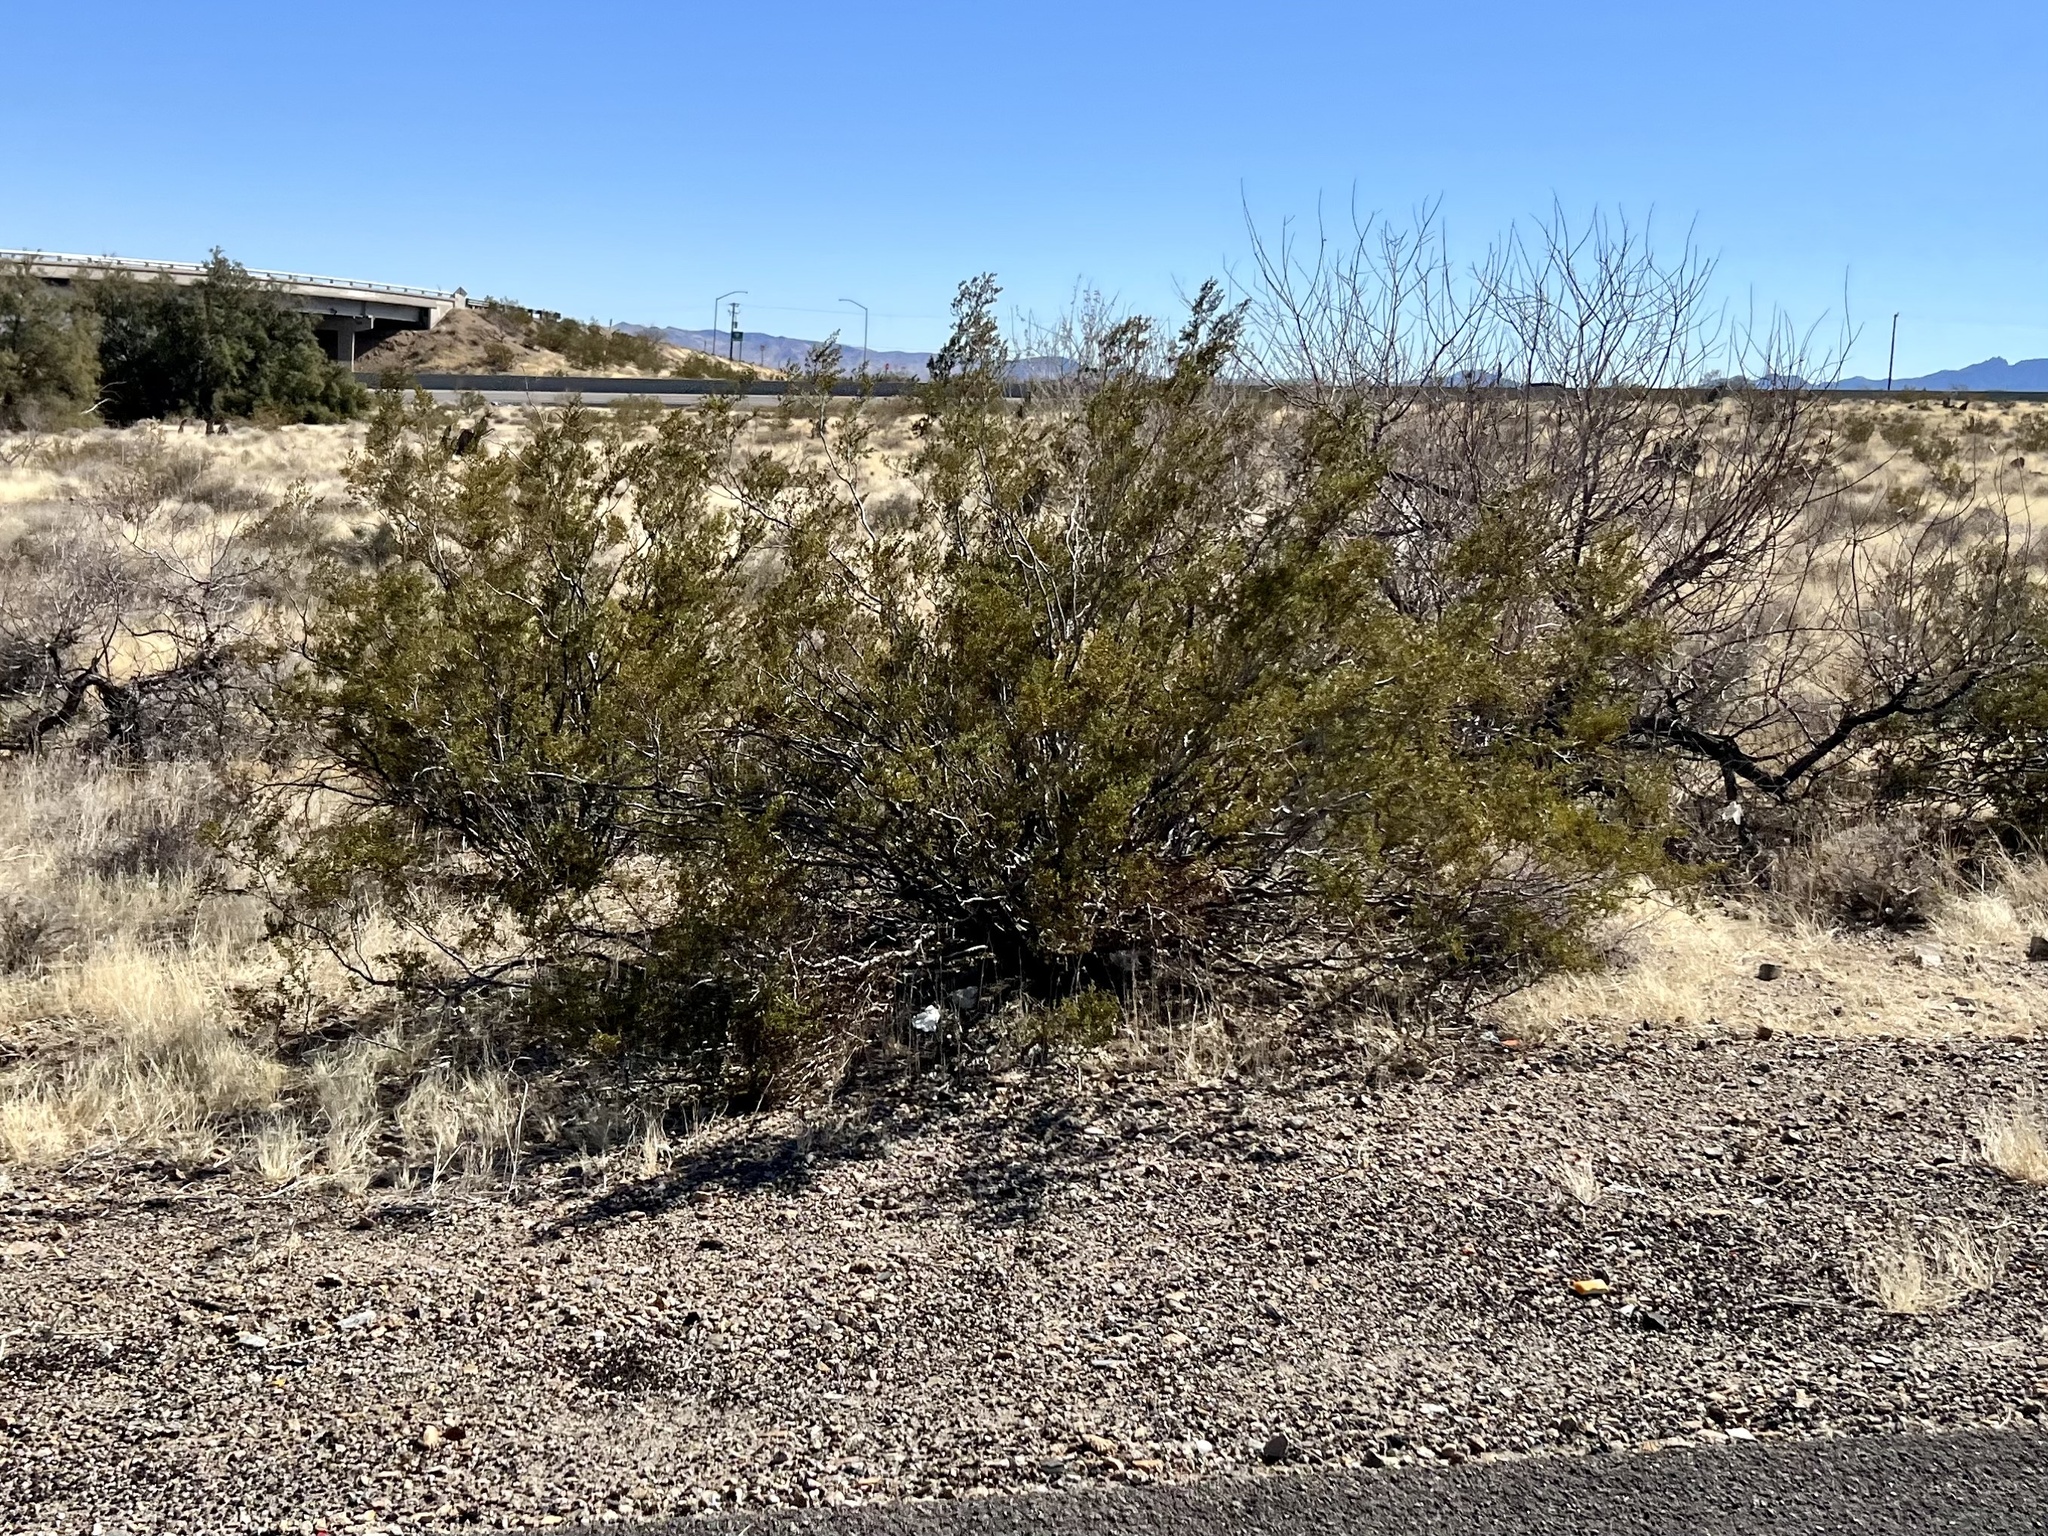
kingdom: Plantae
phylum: Tracheophyta
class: Magnoliopsida
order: Zygophyllales
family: Zygophyllaceae
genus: Larrea
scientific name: Larrea tridentata
